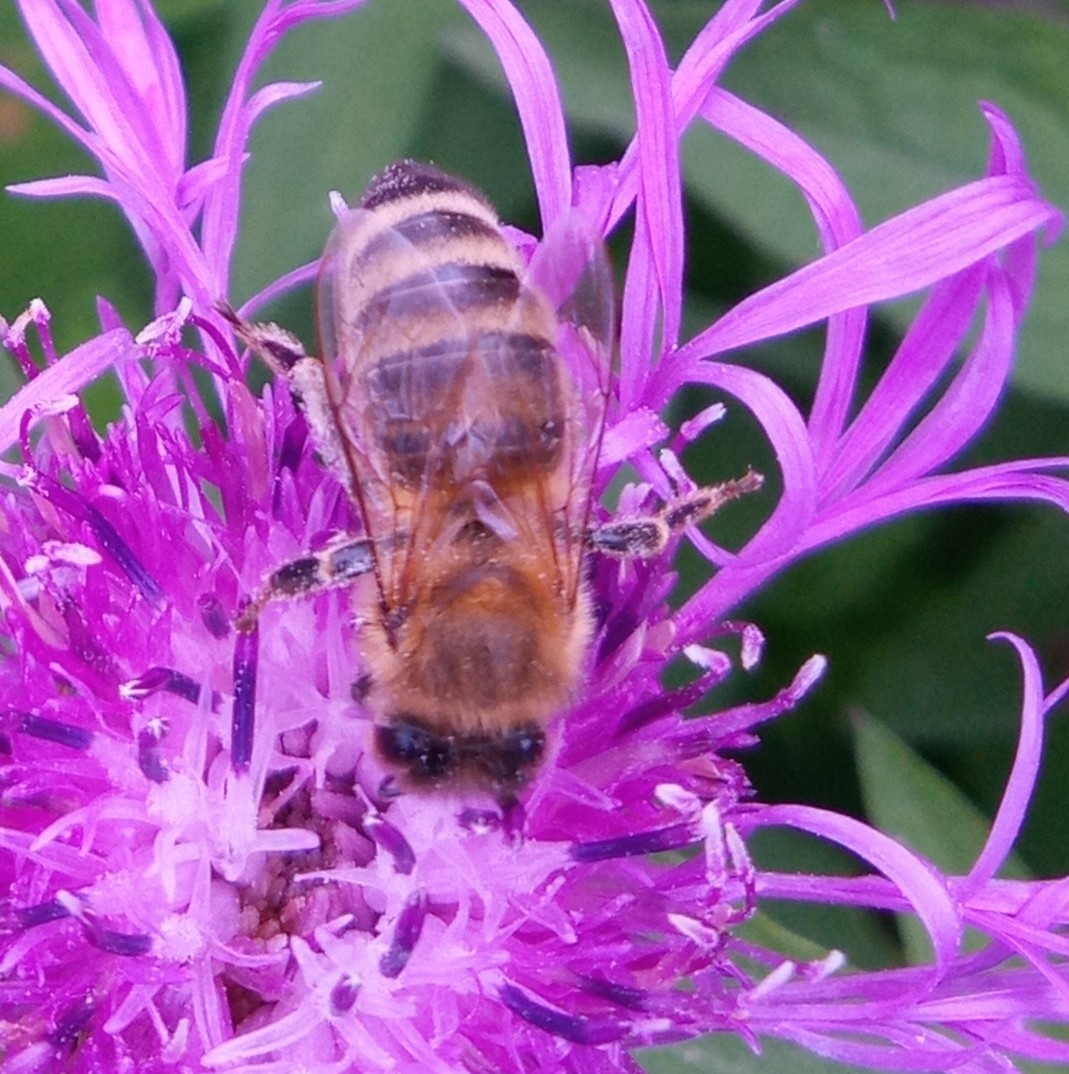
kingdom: Animalia
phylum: Arthropoda
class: Insecta
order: Hymenoptera
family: Apidae
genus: Apis
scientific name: Apis mellifera
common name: Honey bee
